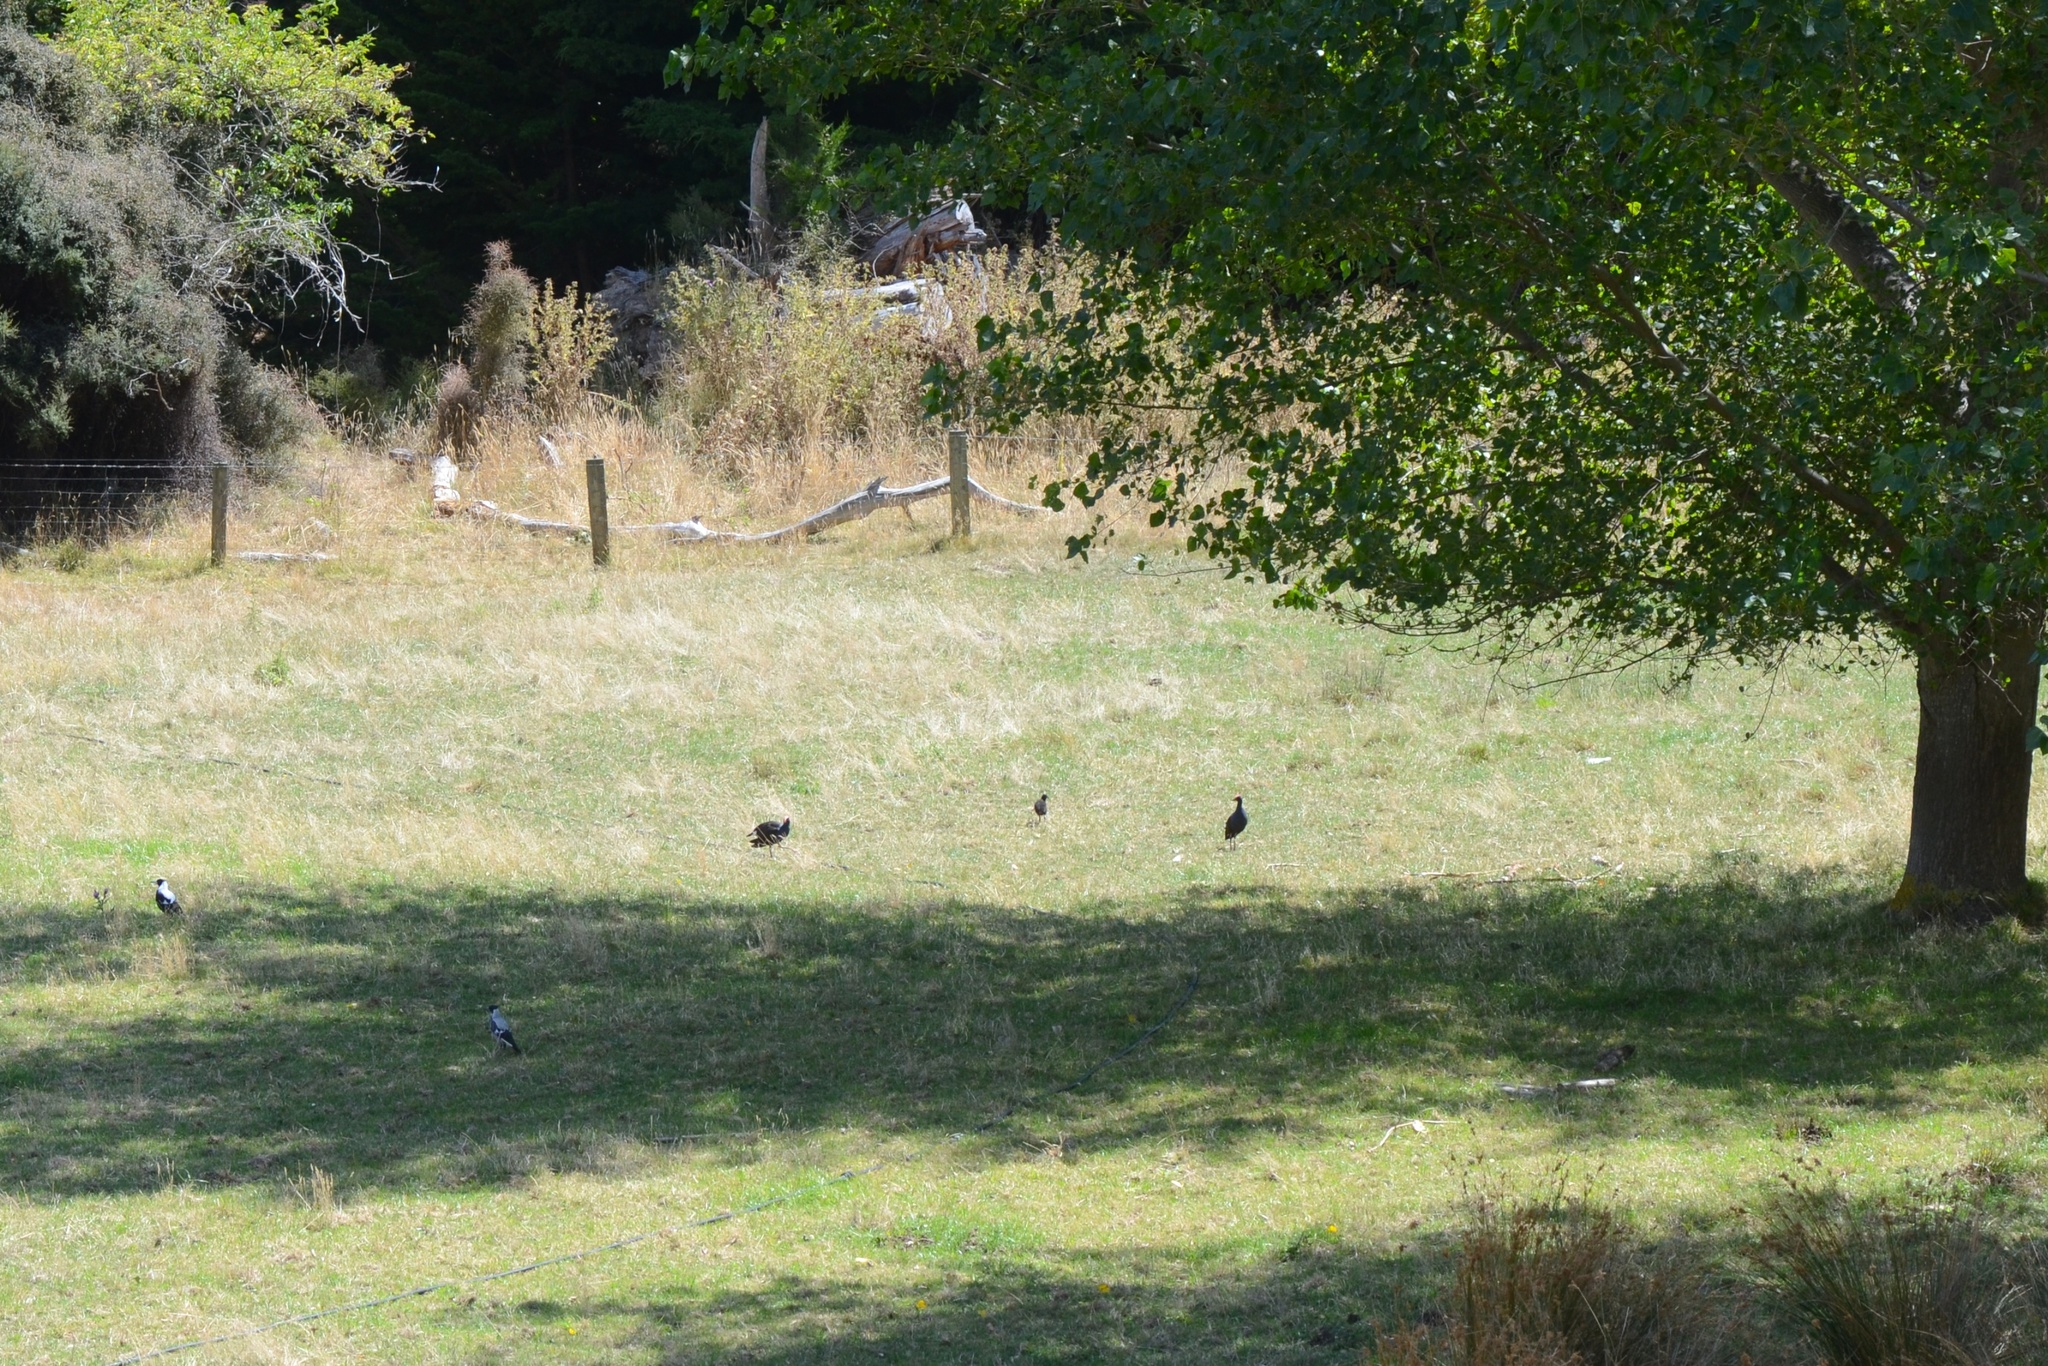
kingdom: Animalia
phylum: Chordata
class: Aves
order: Passeriformes
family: Cracticidae
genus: Gymnorhina
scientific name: Gymnorhina tibicen
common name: Australian magpie
